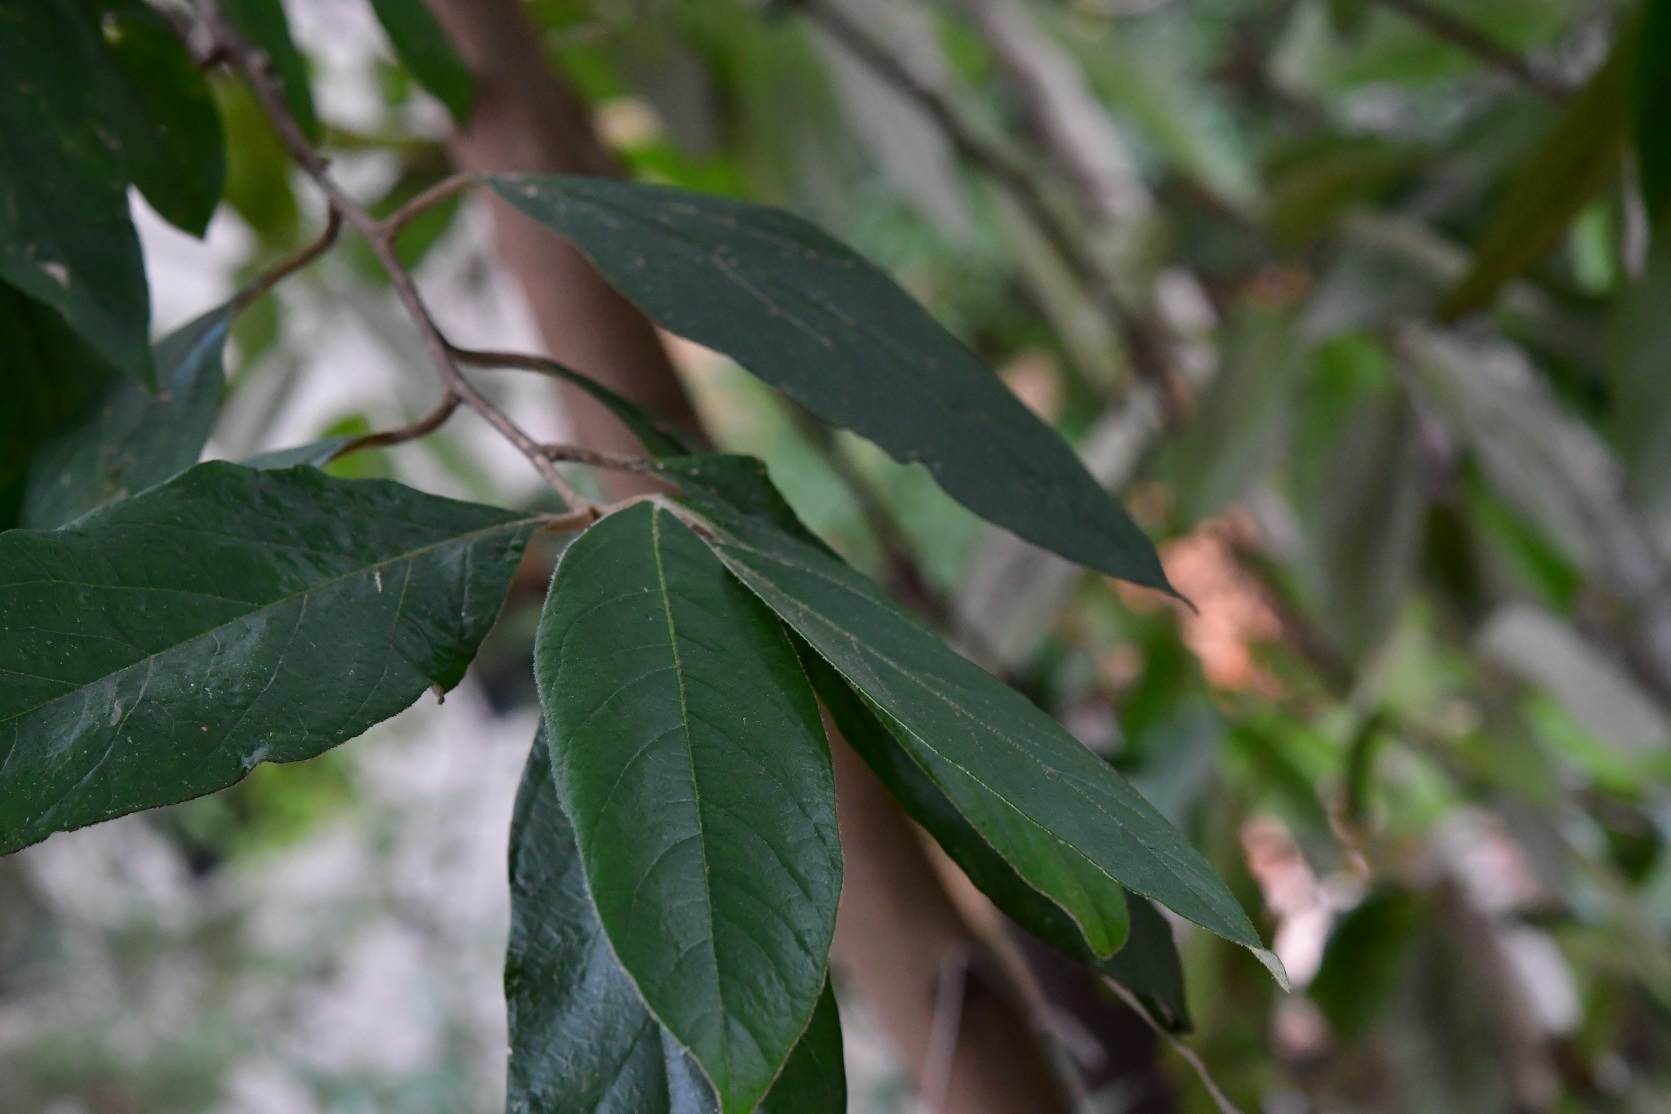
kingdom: Plantae
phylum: Tracheophyta
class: Magnoliopsida
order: Ericales
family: Styracaceae
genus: Styrax
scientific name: Styrax argenteus
